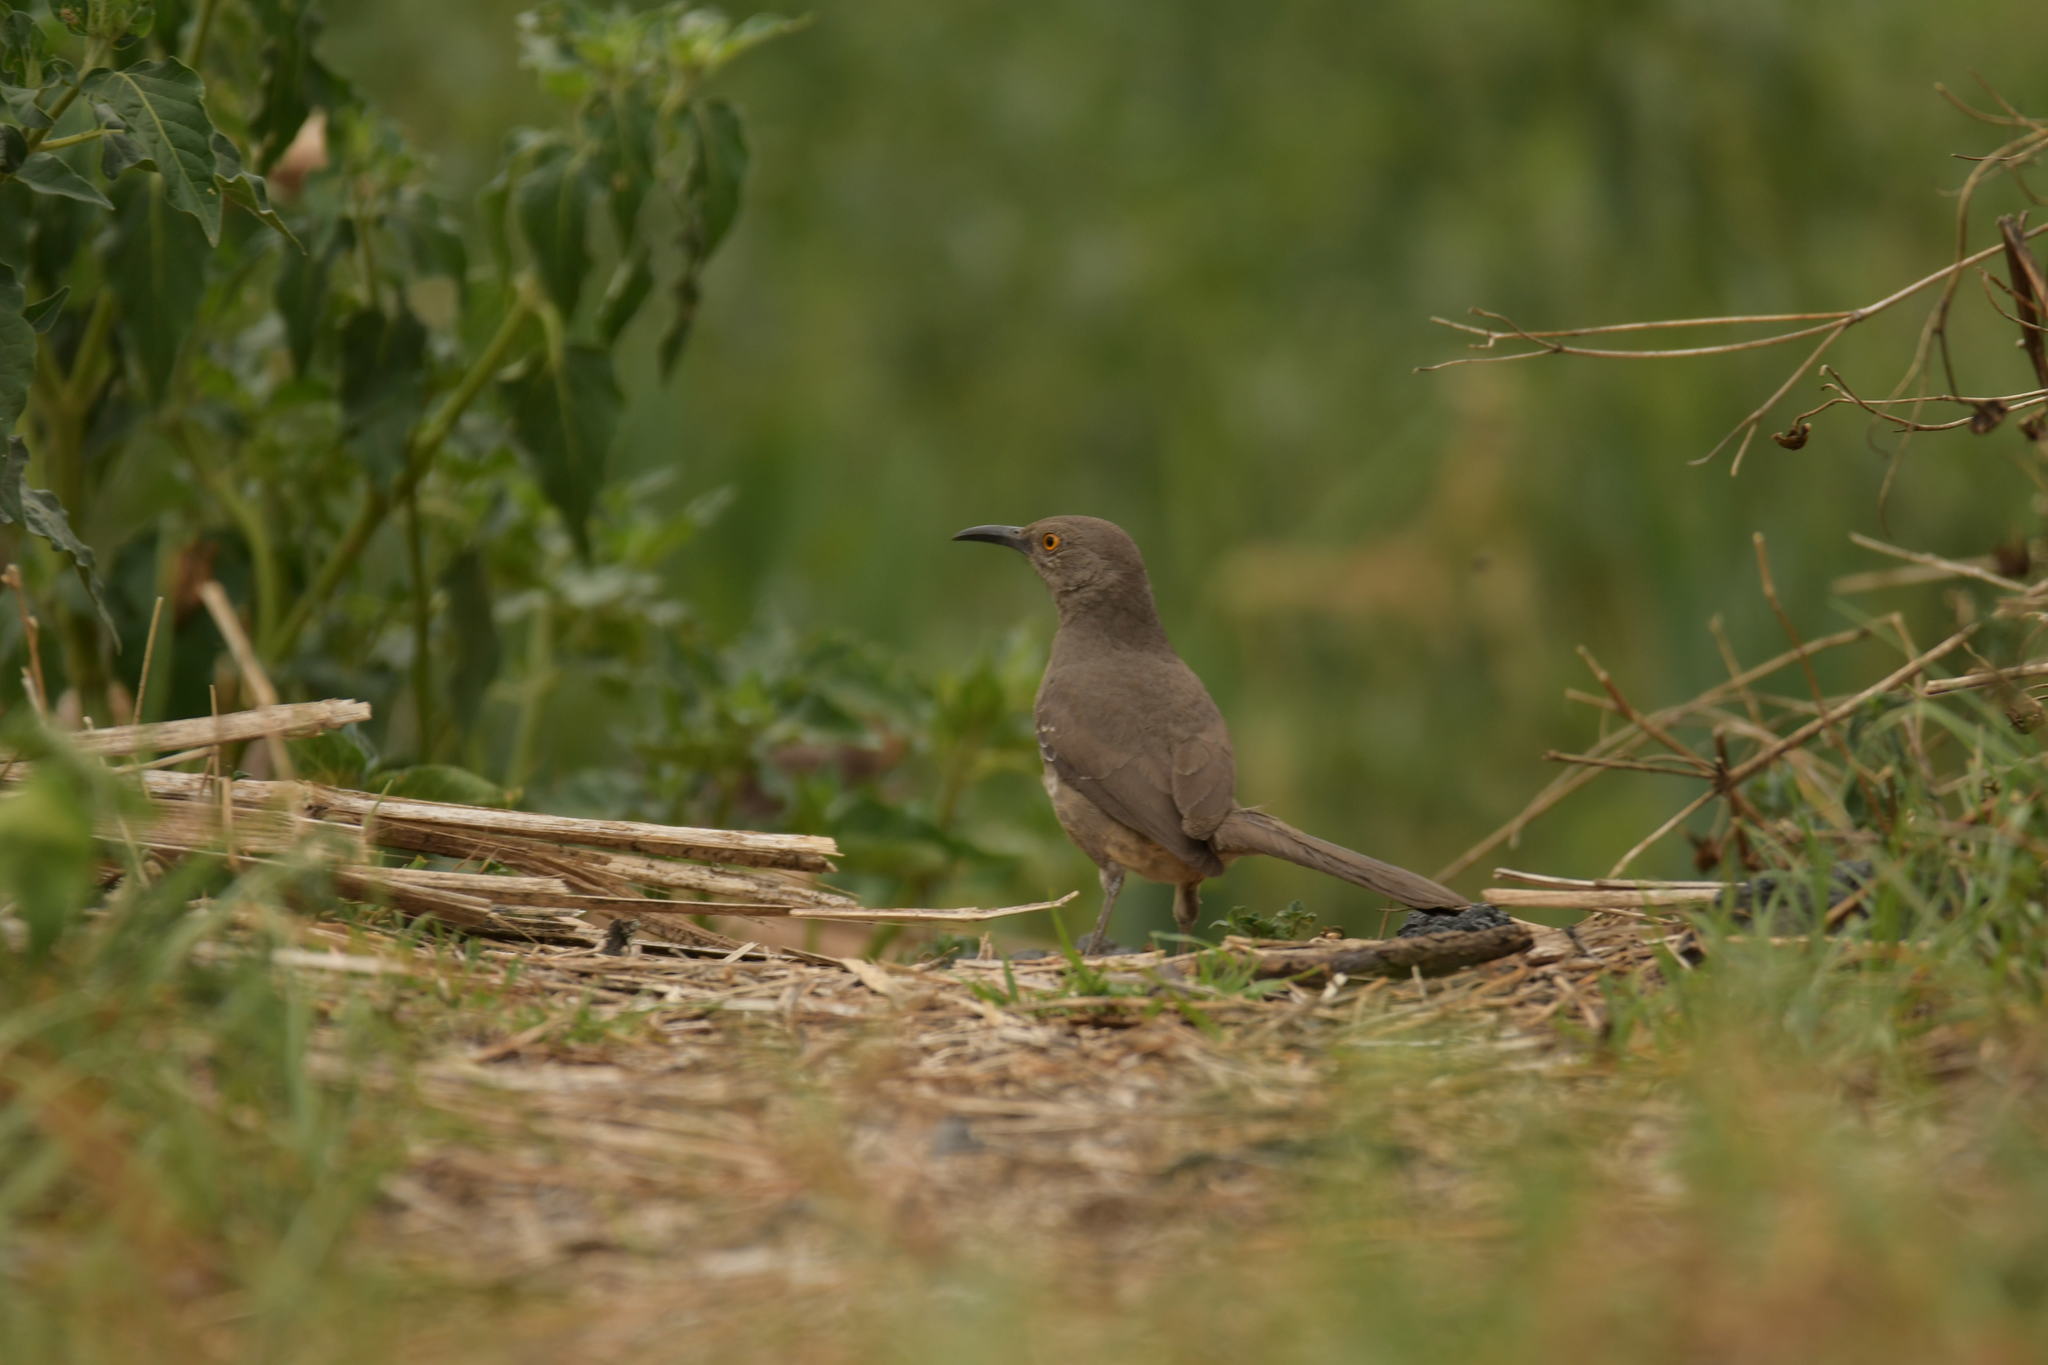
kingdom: Animalia
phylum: Chordata
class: Aves
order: Passeriformes
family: Mimidae
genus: Toxostoma
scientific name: Toxostoma curvirostre
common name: Curve-billed thrasher
